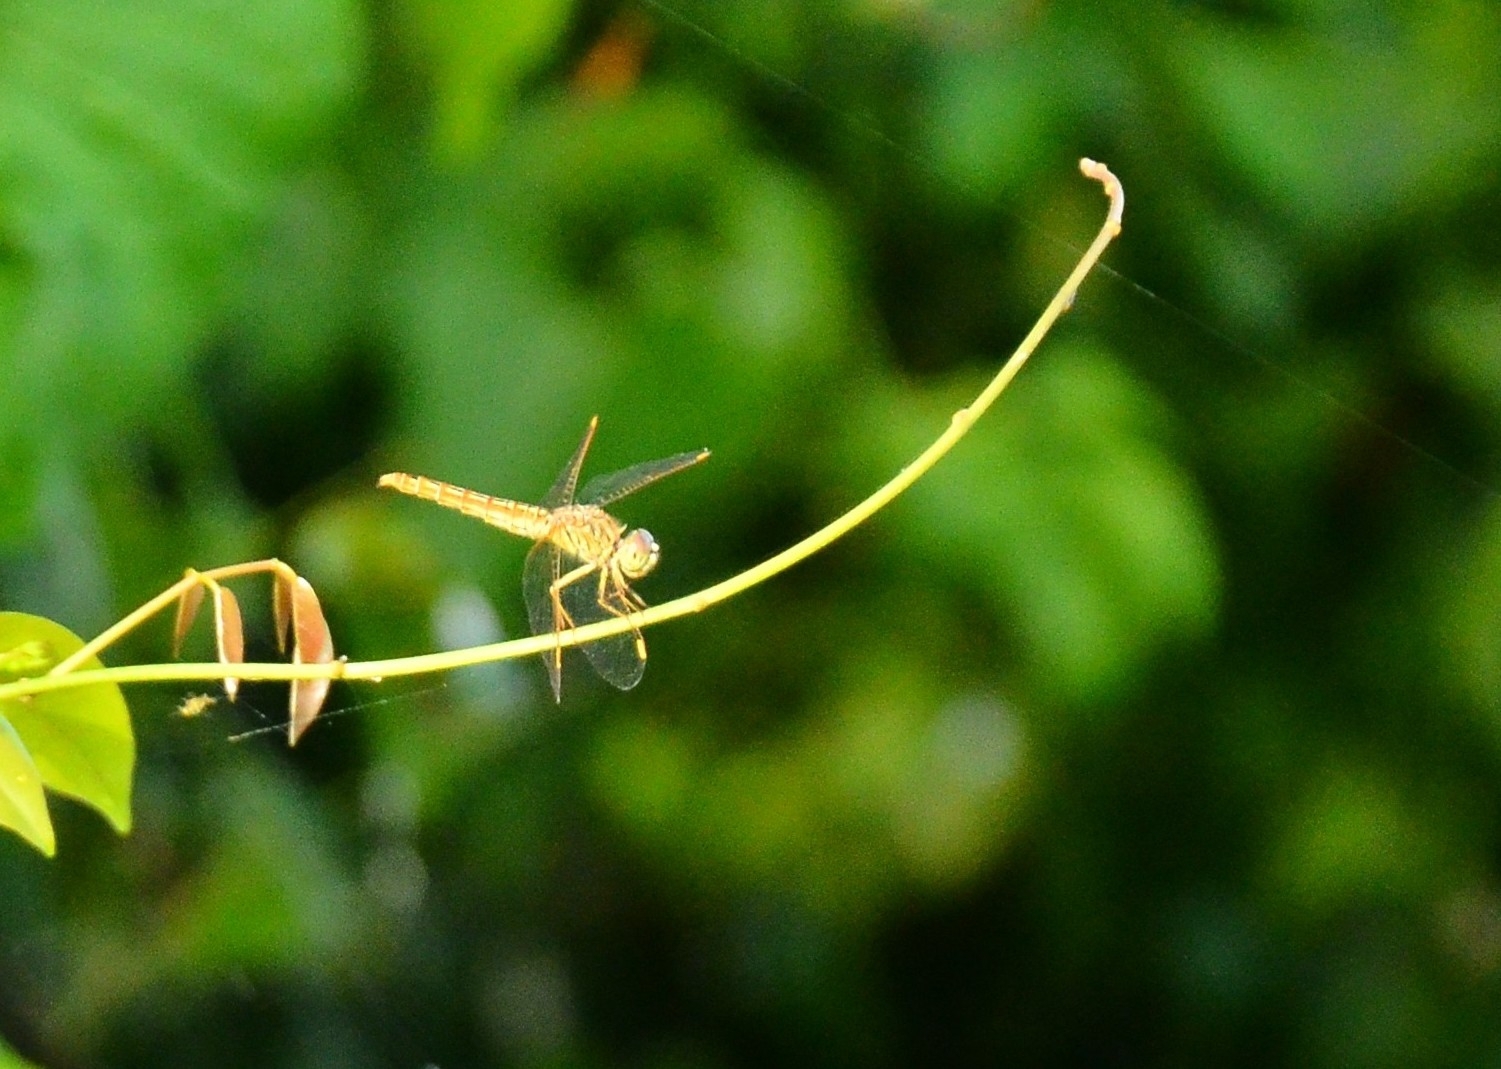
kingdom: Animalia
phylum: Arthropoda
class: Insecta
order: Odonata
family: Libellulidae
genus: Brachythemis
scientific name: Brachythemis contaminata
